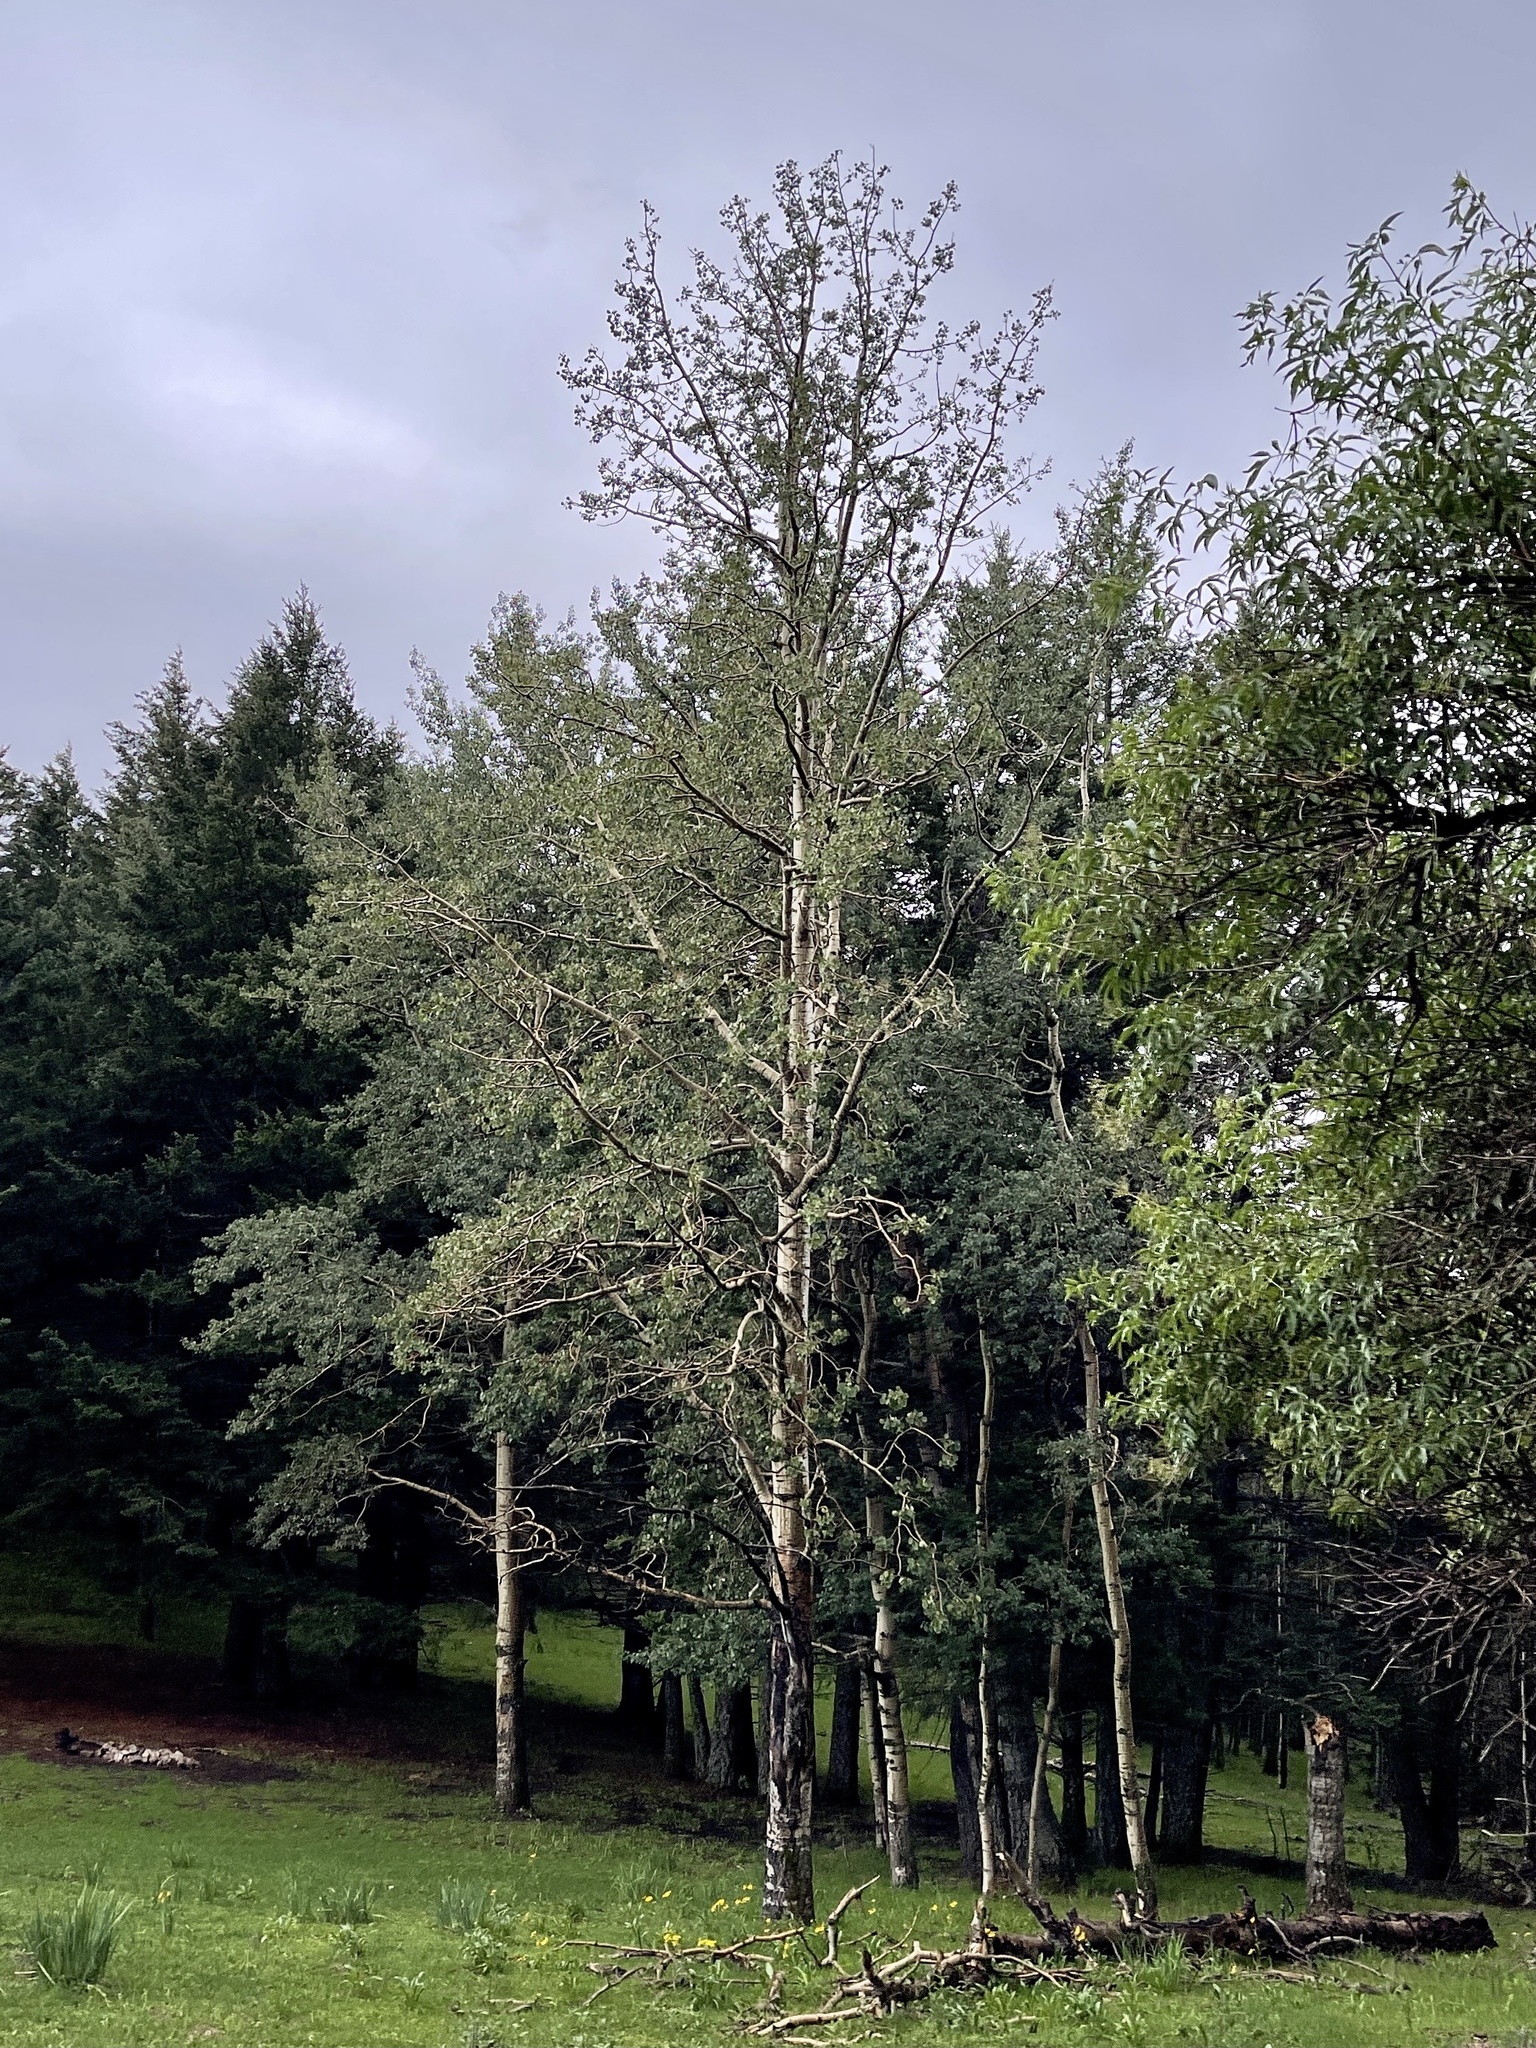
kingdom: Plantae
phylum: Tracheophyta
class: Magnoliopsida
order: Malpighiales
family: Salicaceae
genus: Populus
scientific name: Populus tremuloides
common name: Quaking aspen
